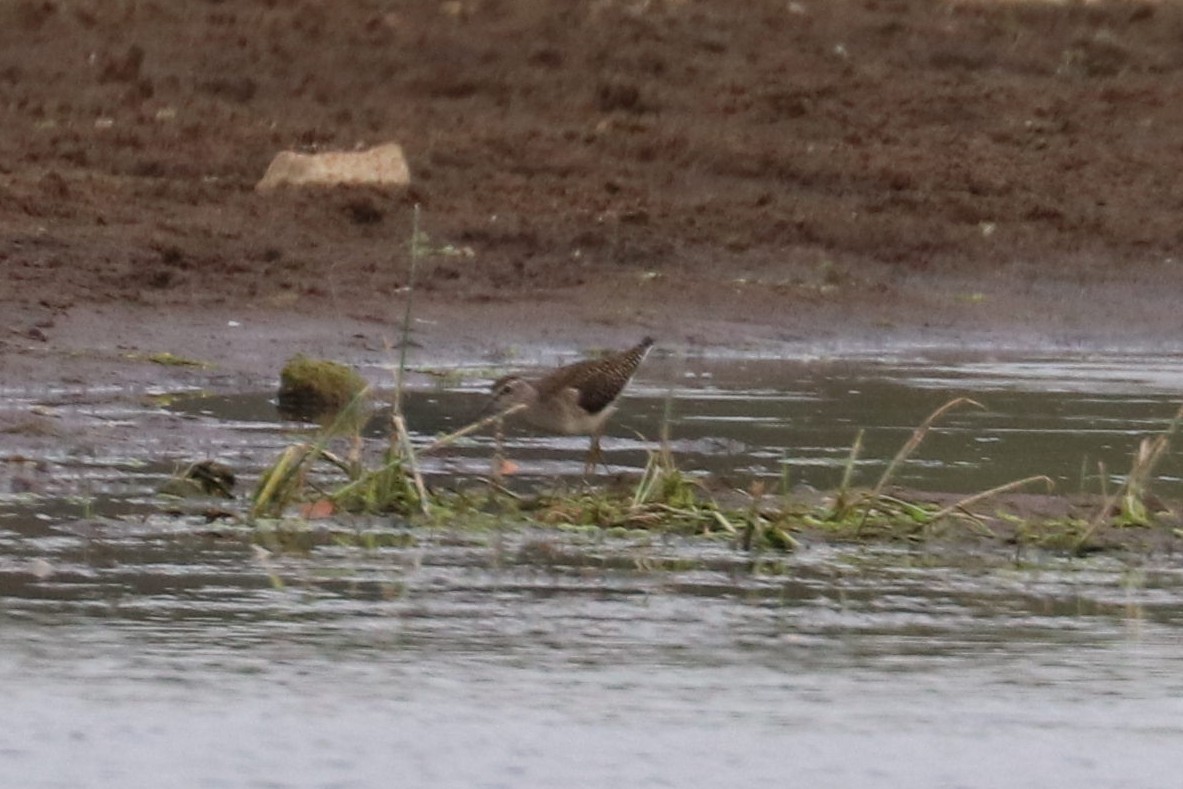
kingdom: Animalia
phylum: Chordata
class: Aves
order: Charadriiformes
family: Scolopacidae
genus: Tringa
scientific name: Tringa glareola
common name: Wood sandpiper
